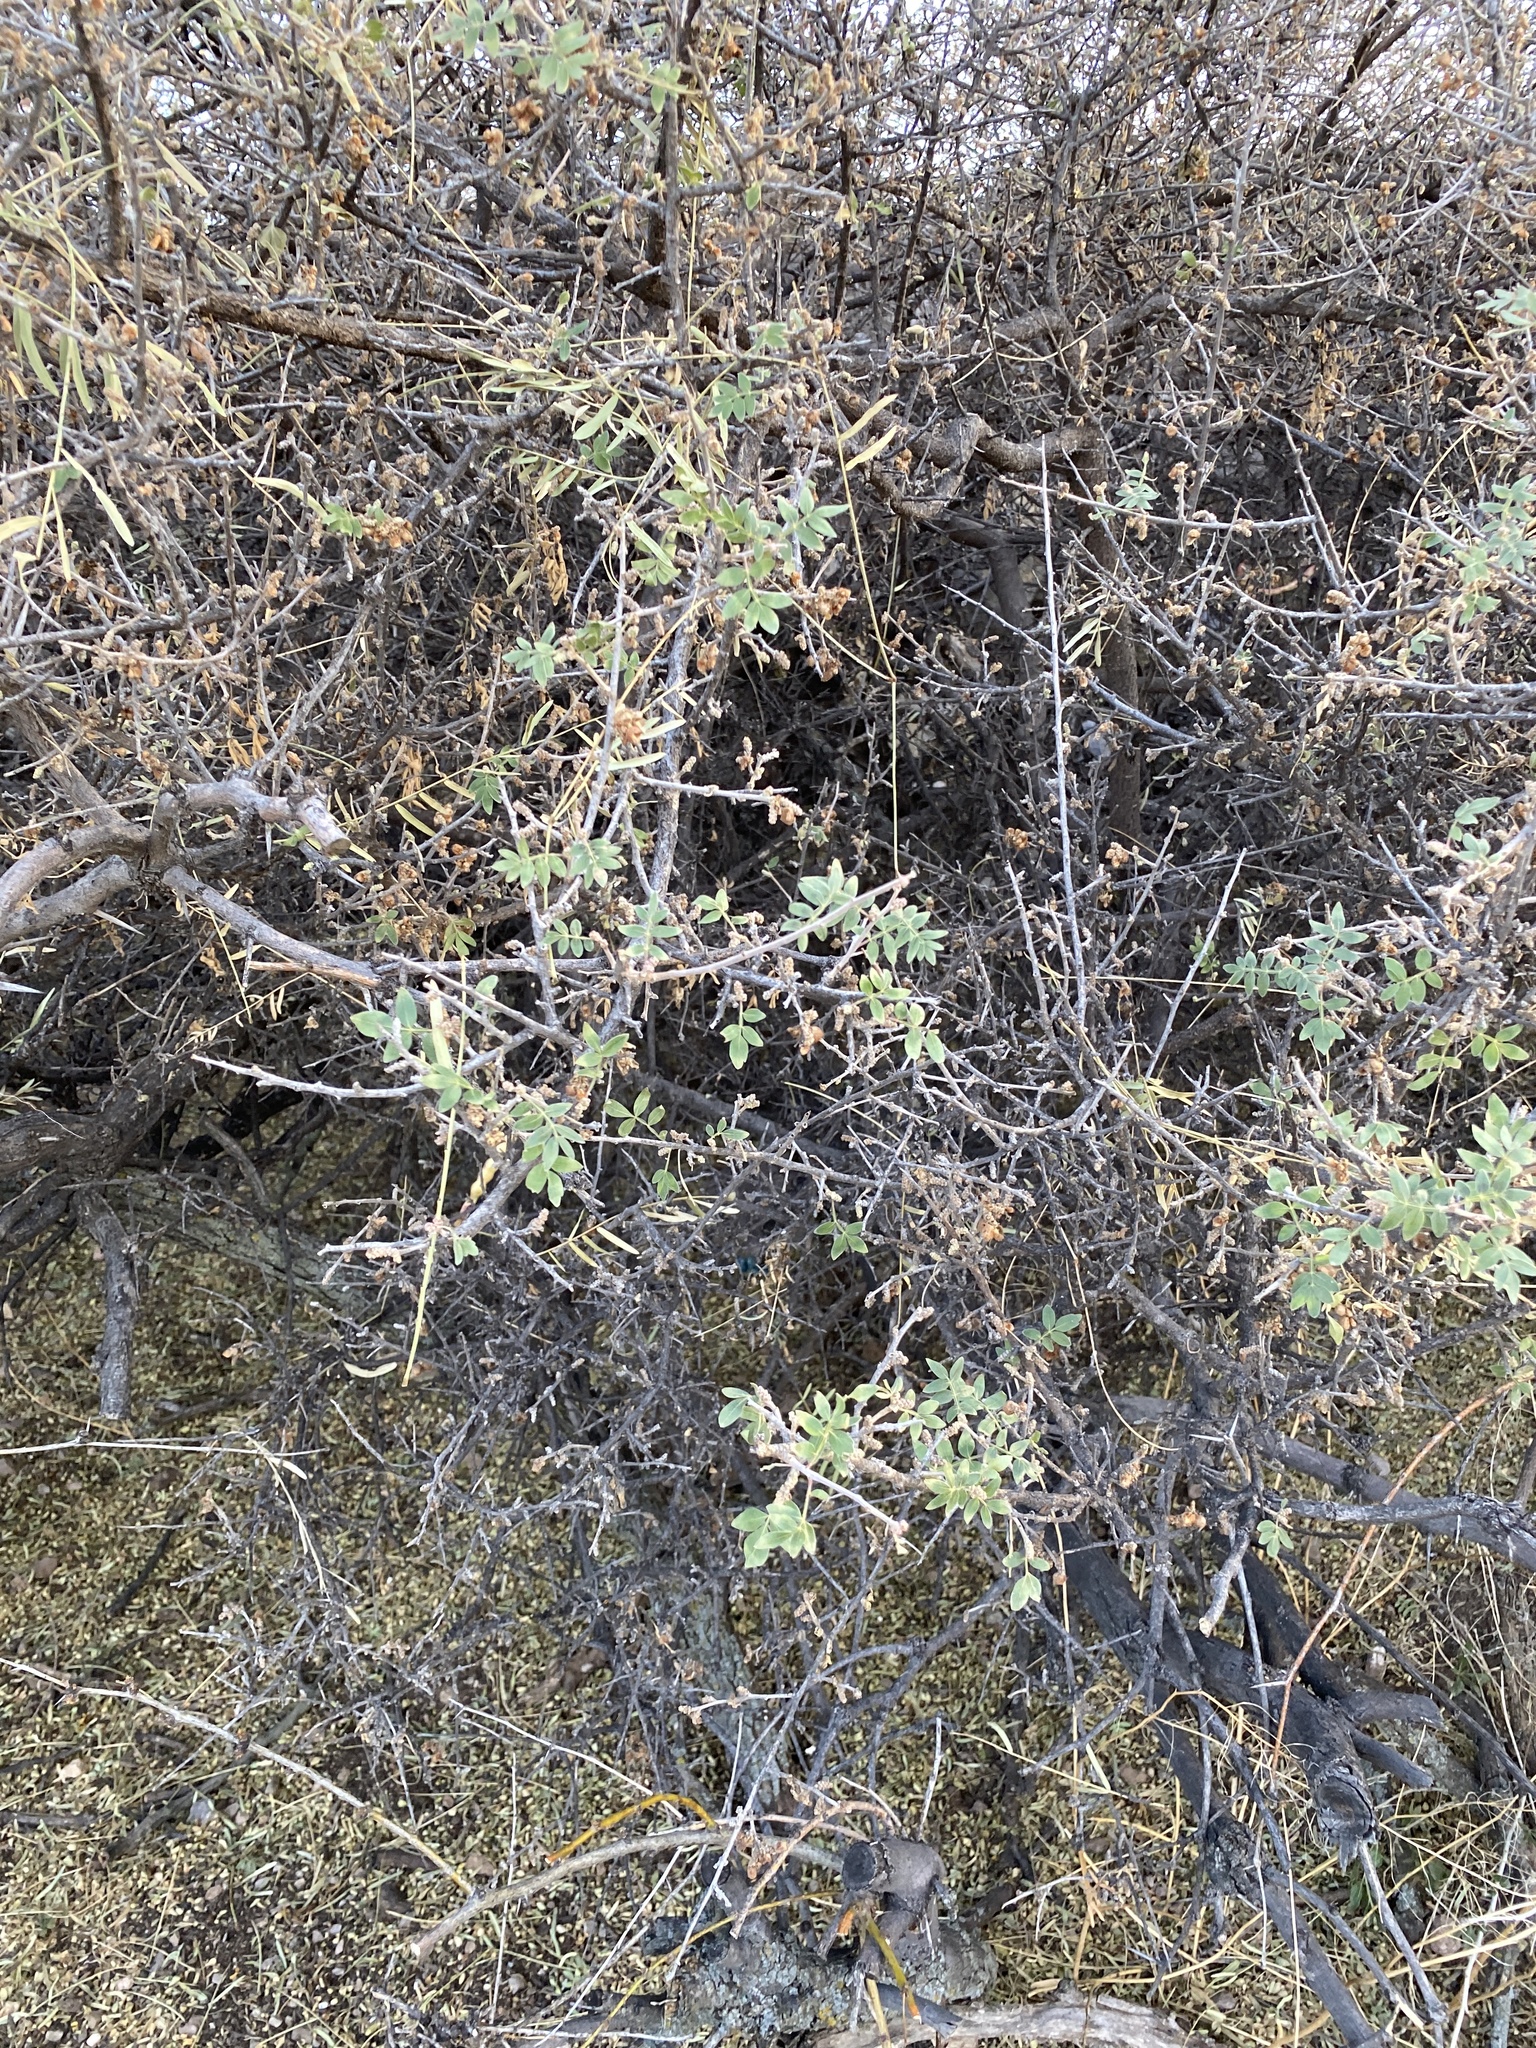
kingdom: Plantae
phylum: Tracheophyta
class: Magnoliopsida
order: Sapindales
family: Anacardiaceae
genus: Rhus
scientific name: Rhus microphylla
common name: Desert sumac
